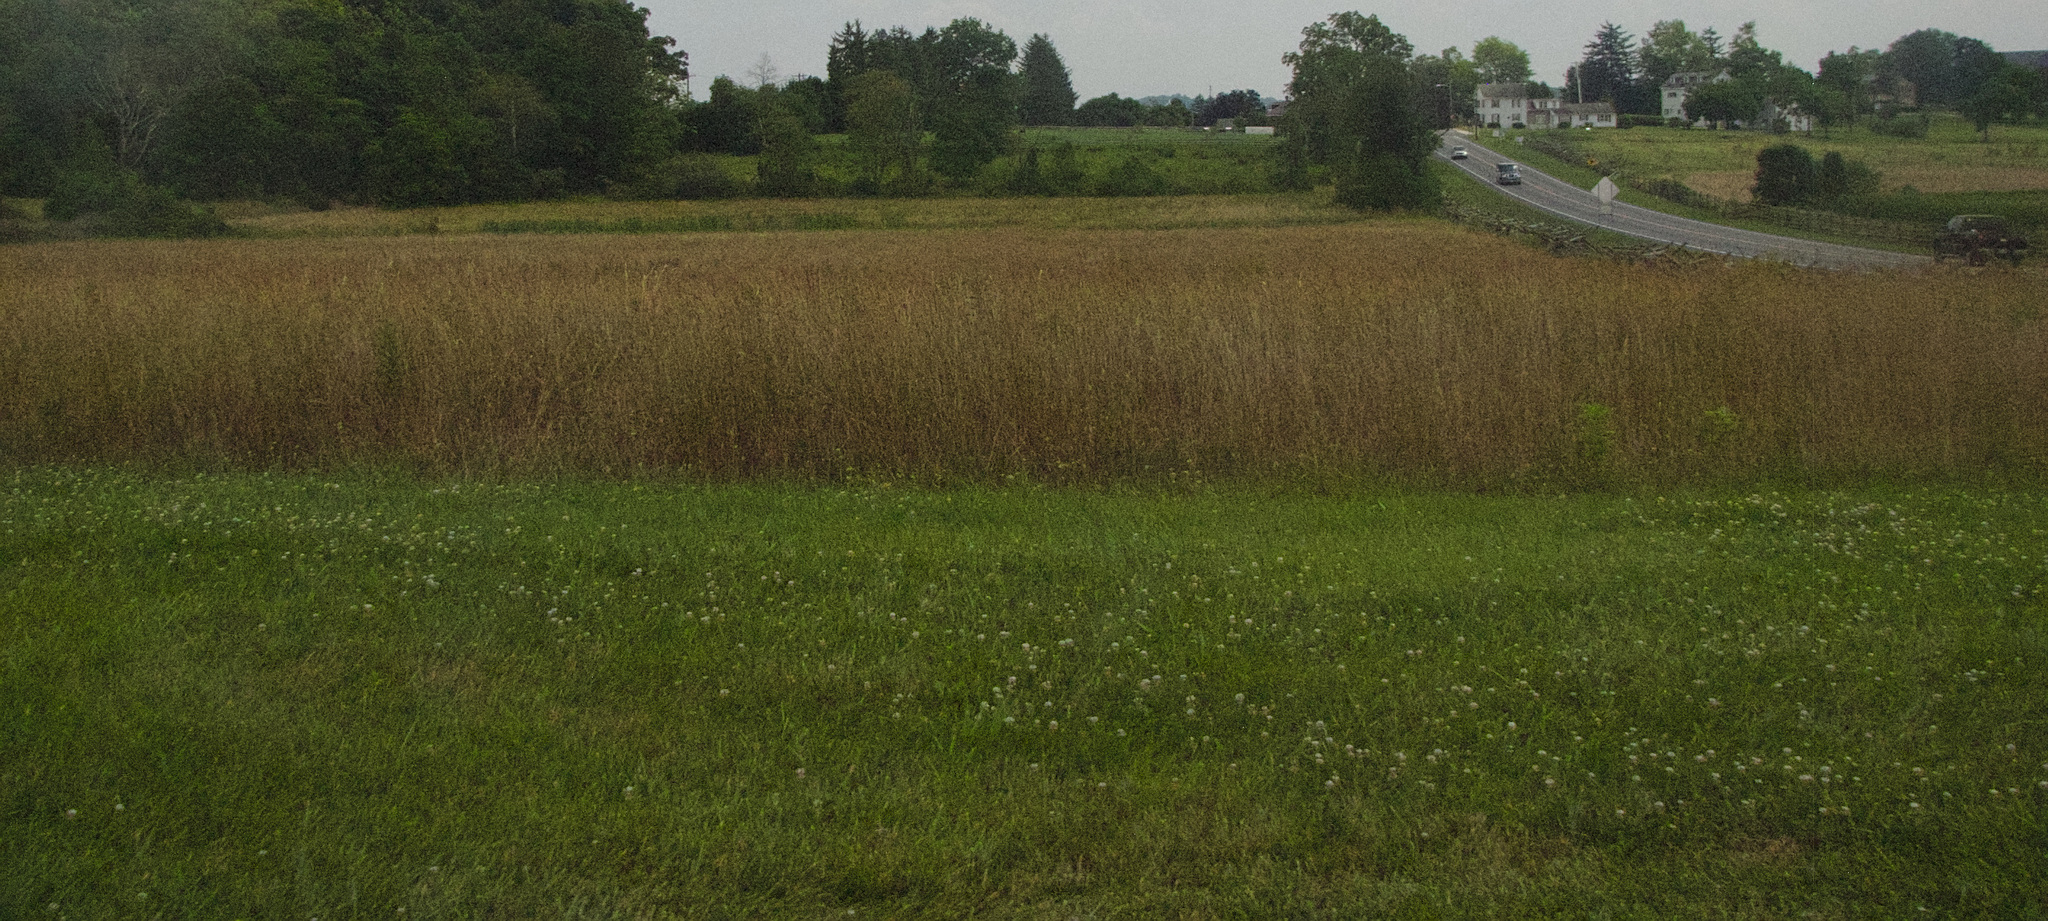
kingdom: Plantae
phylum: Tracheophyta
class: Magnoliopsida
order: Fabales
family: Fabaceae
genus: Trifolium
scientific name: Trifolium repens
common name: White clover
